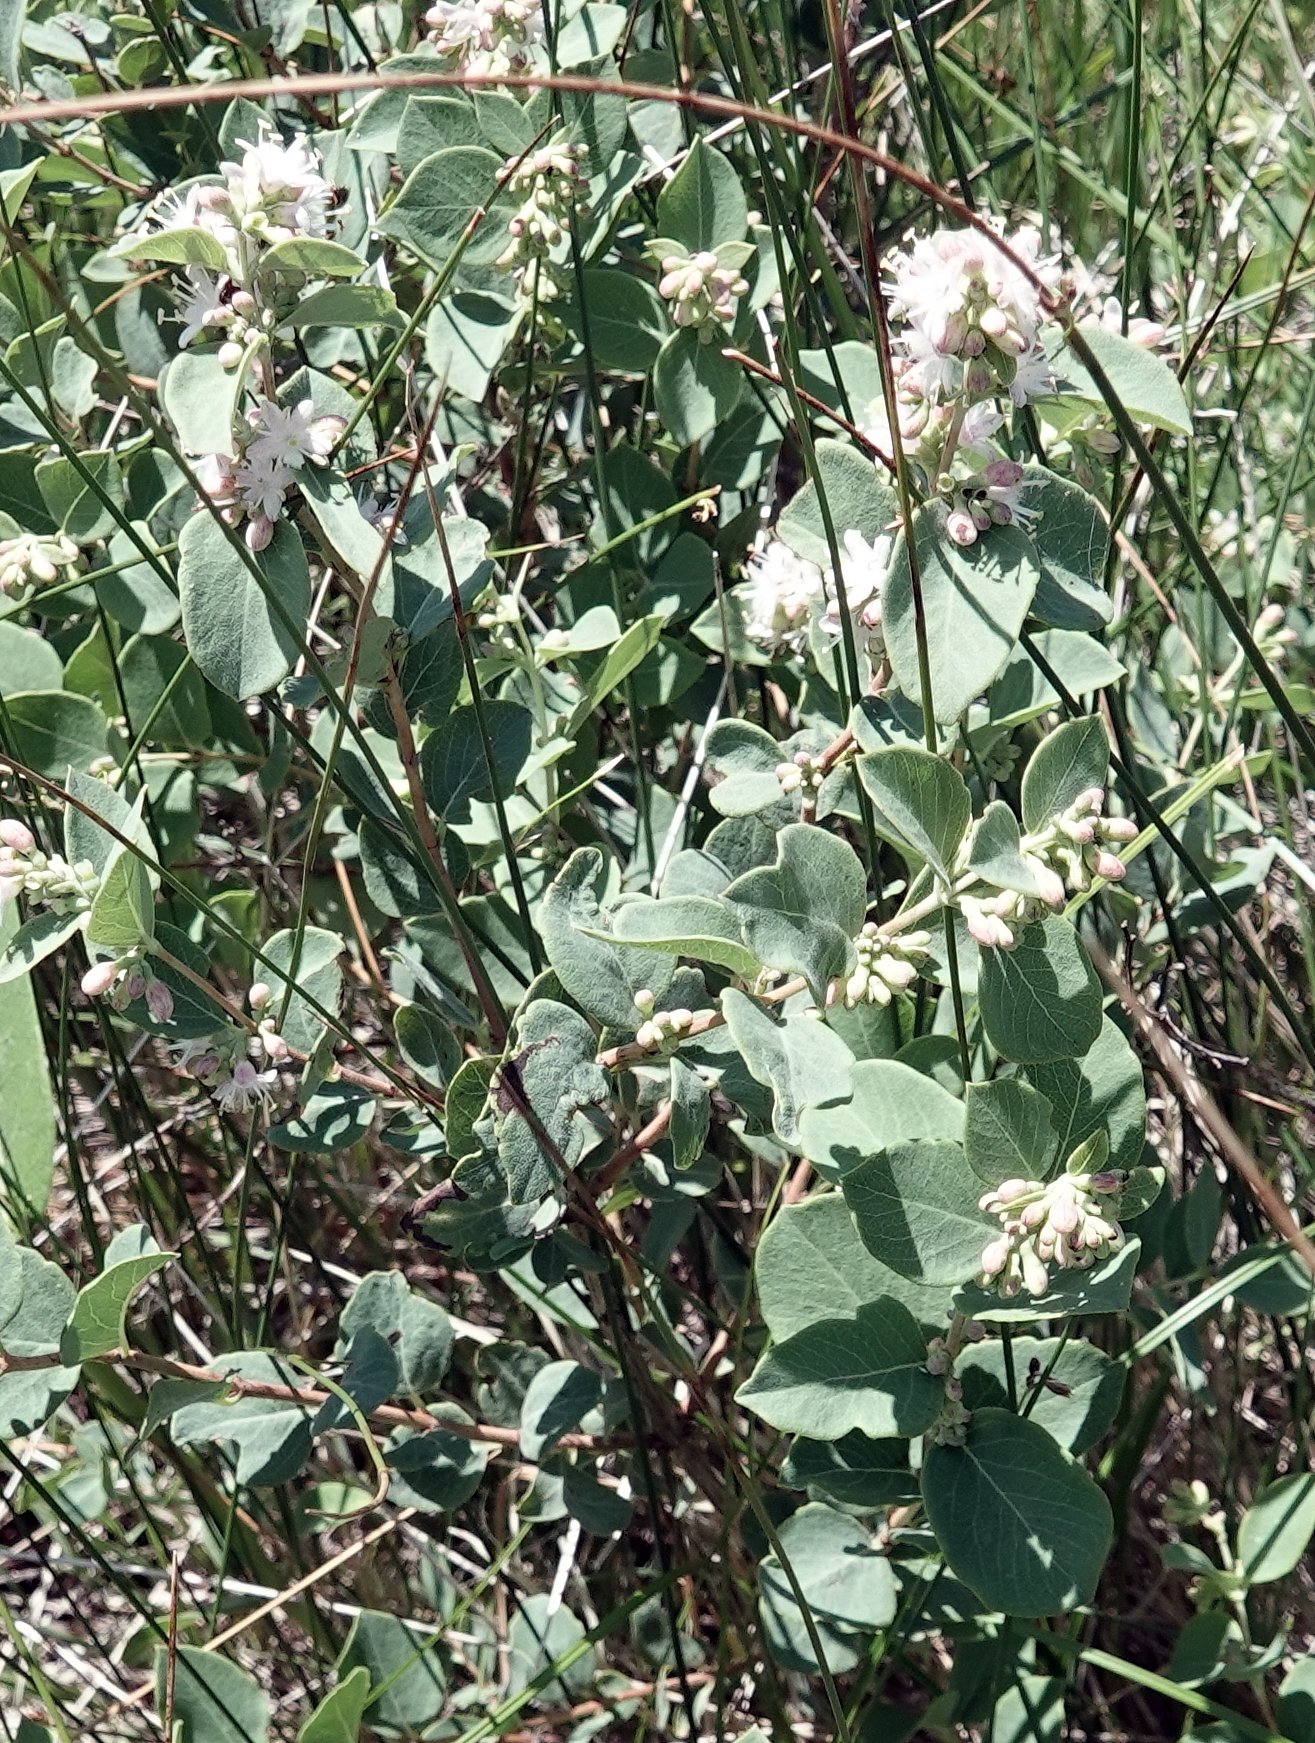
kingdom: Plantae
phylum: Tracheophyta
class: Magnoliopsida
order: Dipsacales
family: Caprifoliaceae
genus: Symphoricarpos
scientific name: Symphoricarpos occidentalis
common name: Wolfberry
